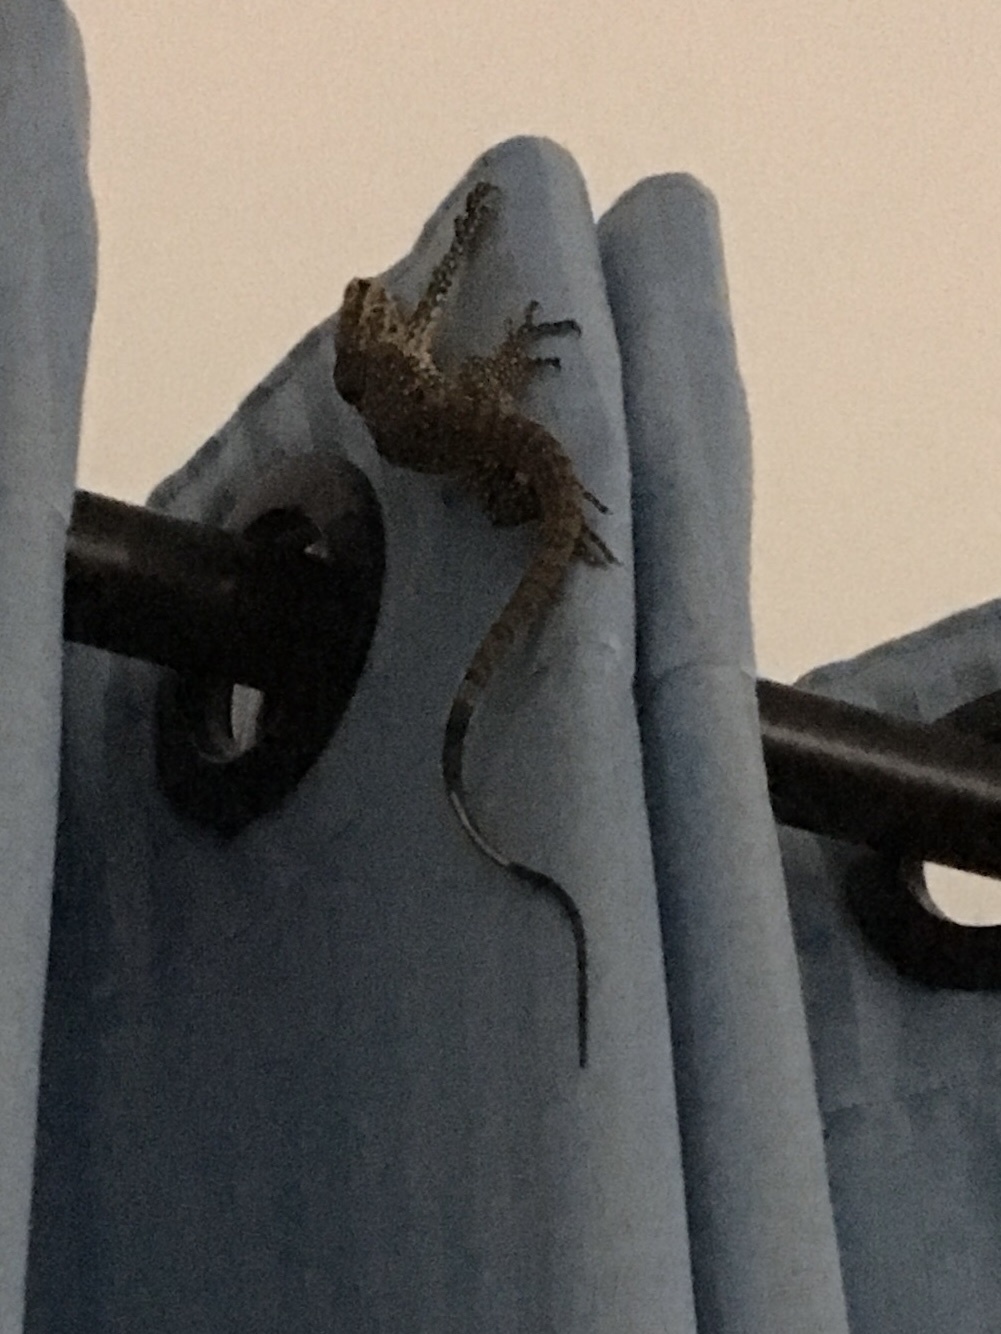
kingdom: Animalia
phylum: Chordata
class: Squamata
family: Varanidae
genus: Varanus
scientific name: Varanus bengalensis
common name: Bengal monitor
